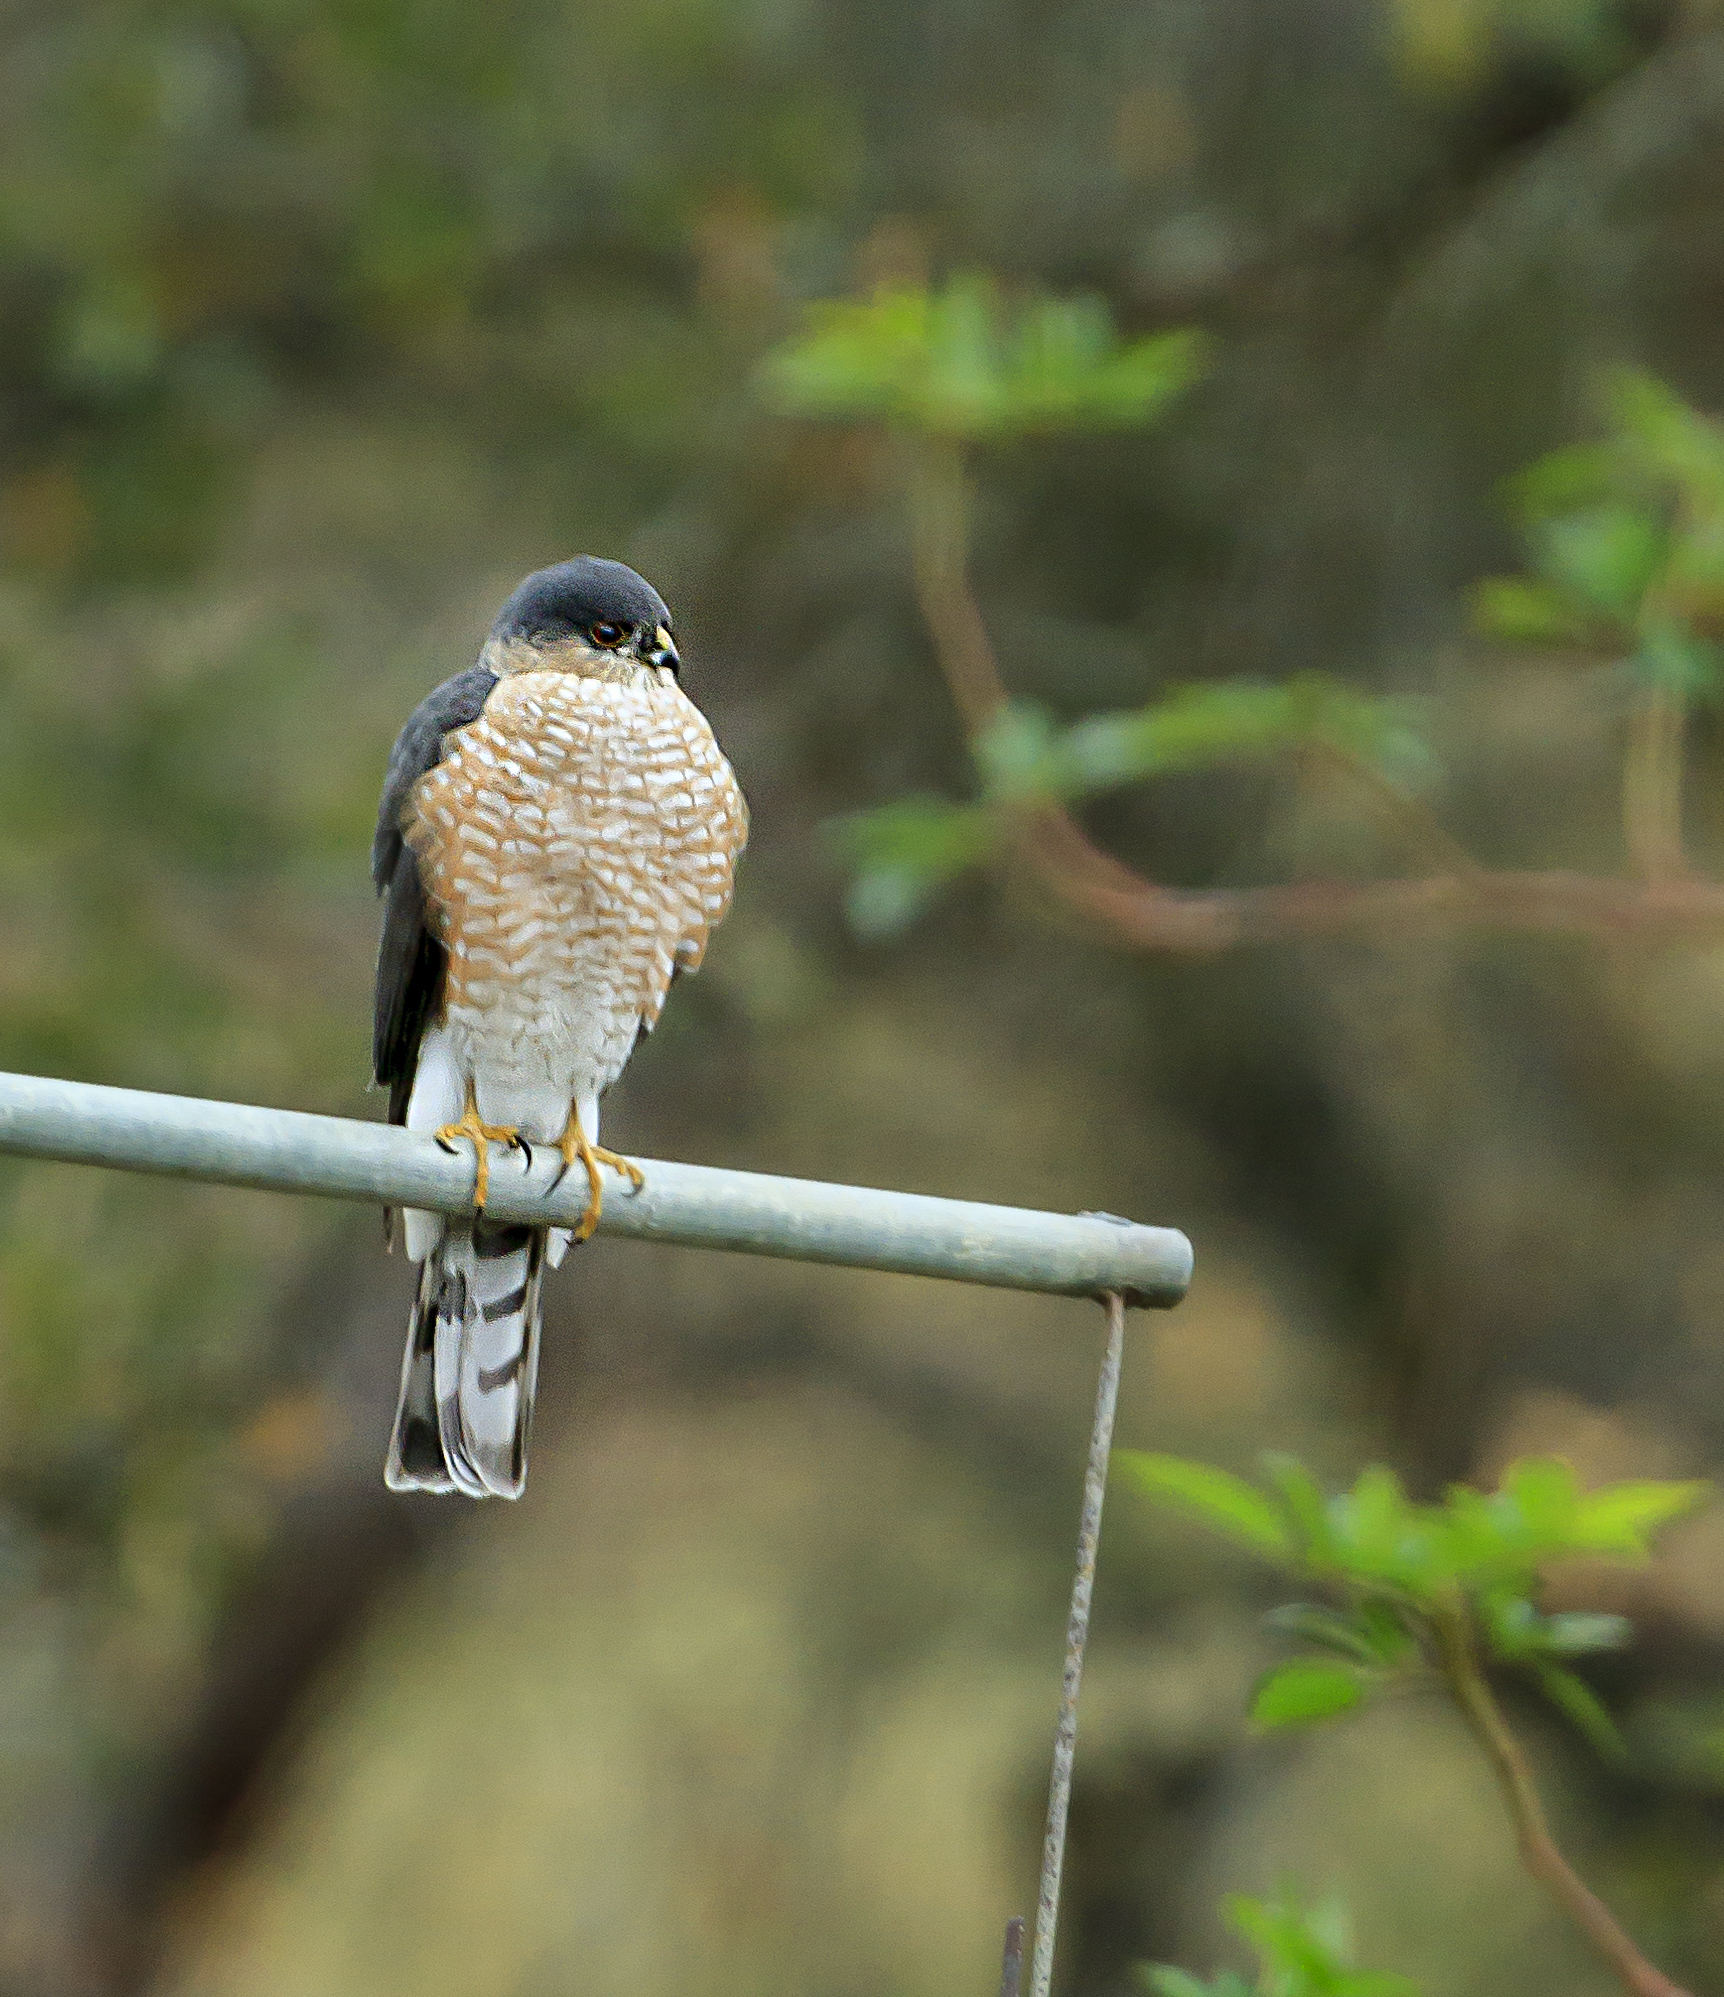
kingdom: Animalia
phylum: Chordata
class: Aves
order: Accipitriformes
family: Accipitridae
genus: Accipiter
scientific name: Accipiter striatus
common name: Sharp-shinned hawk
